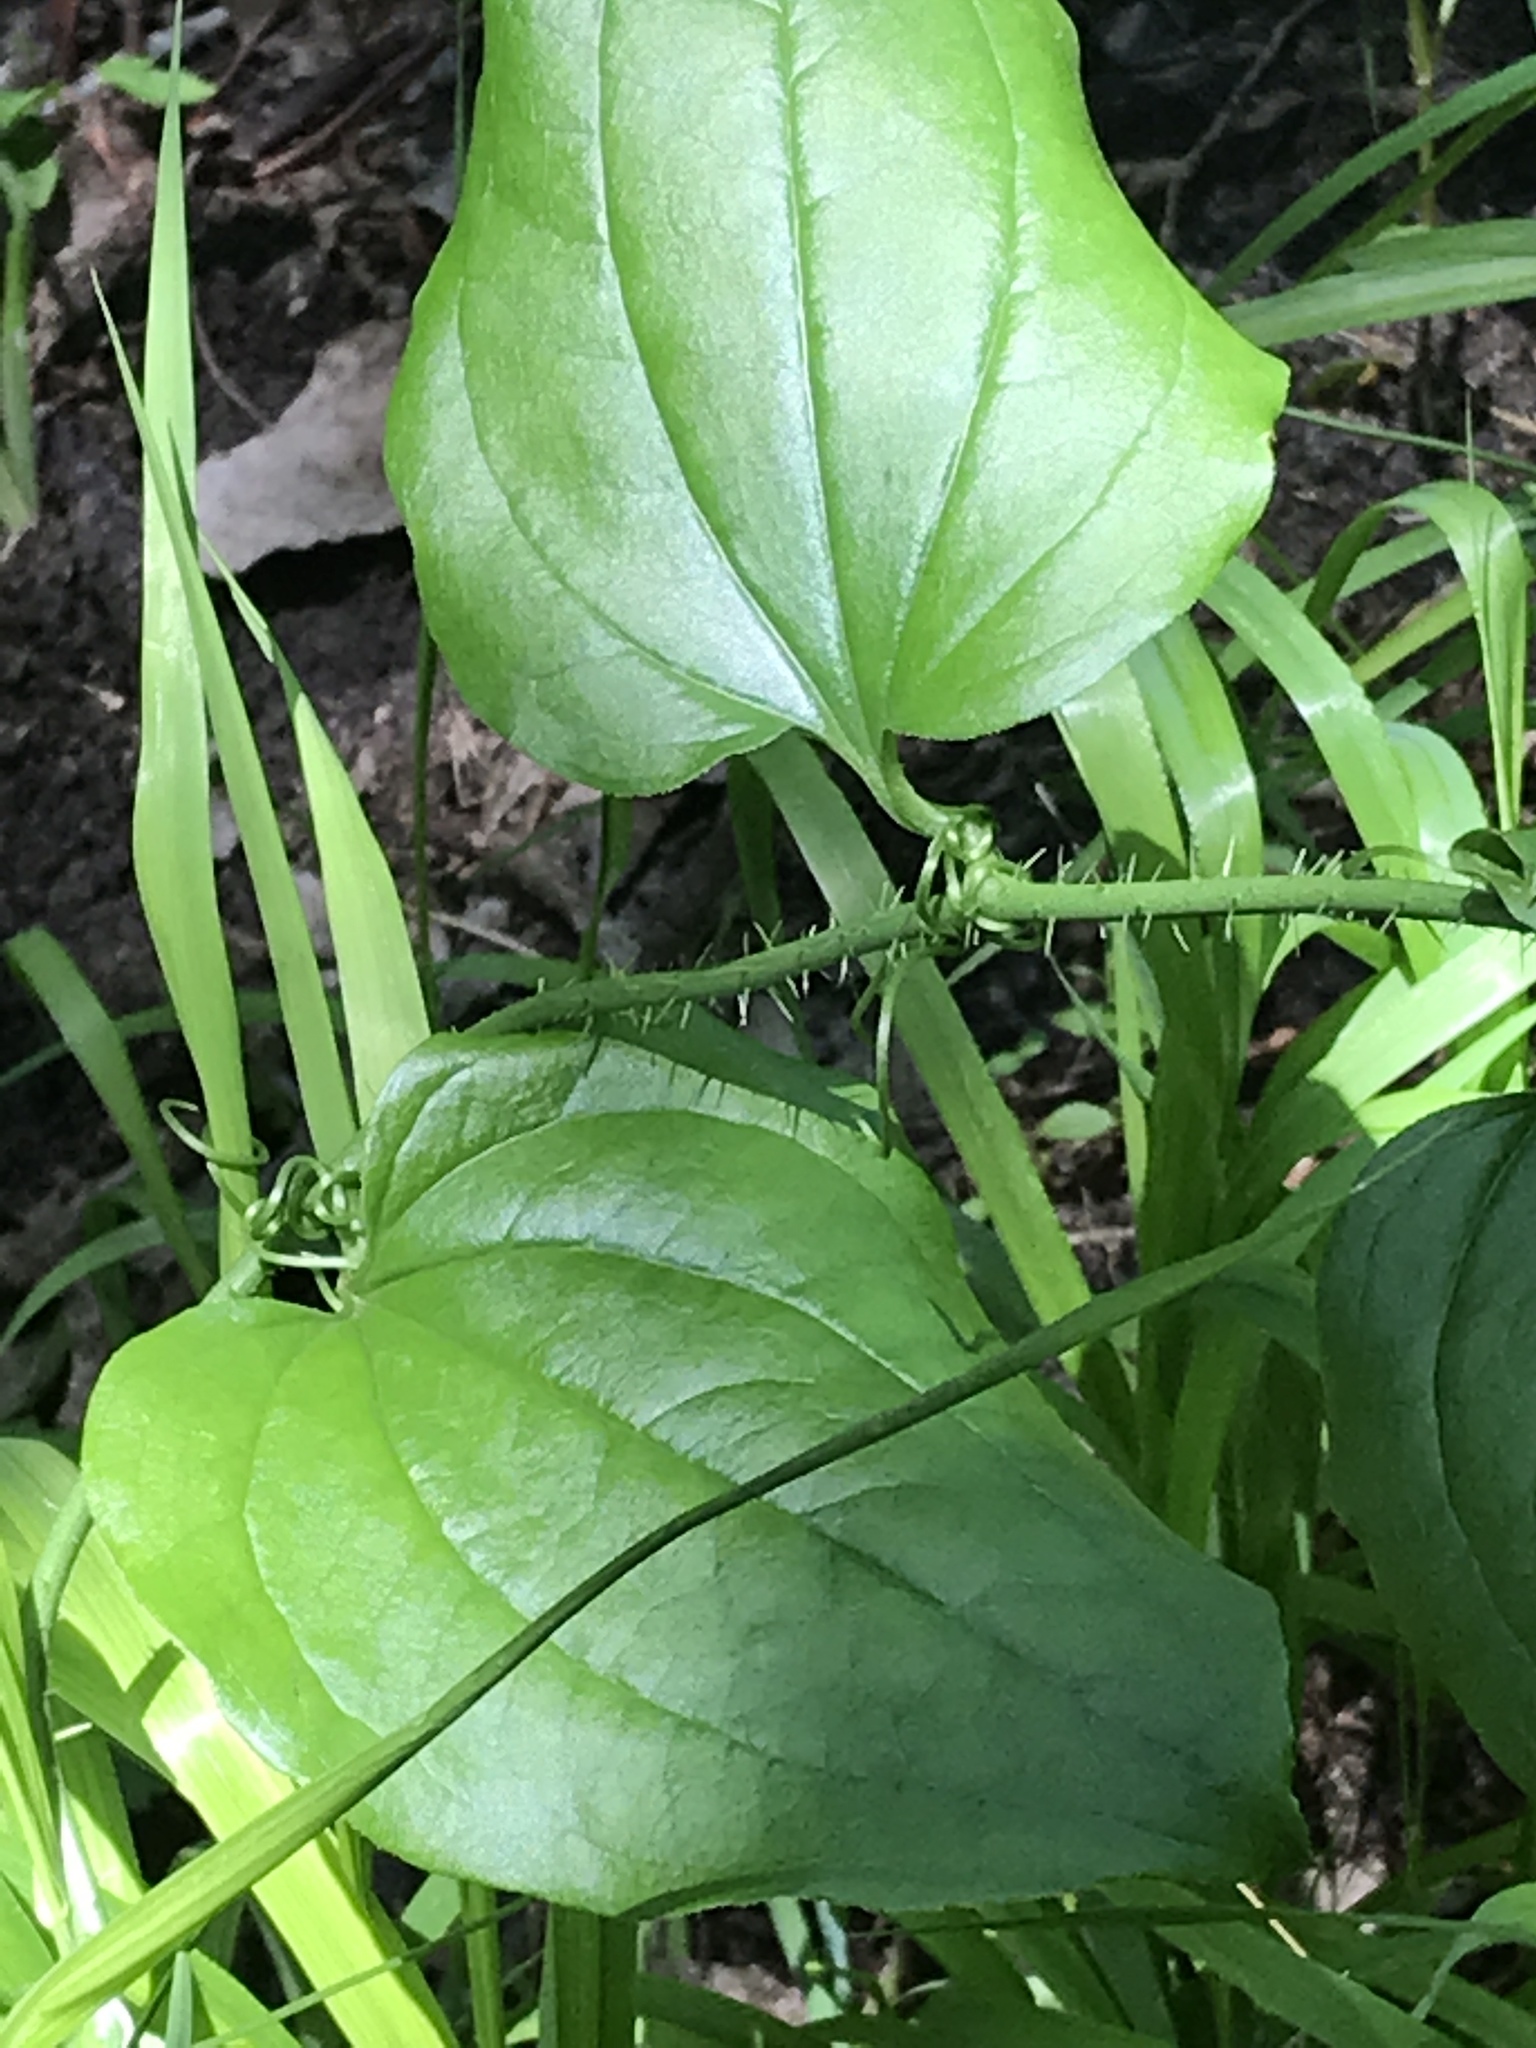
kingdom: Plantae
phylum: Tracheophyta
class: Liliopsida
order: Liliales
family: Smilacaceae
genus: Smilax
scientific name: Smilax tamnoides
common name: Hellfetter
